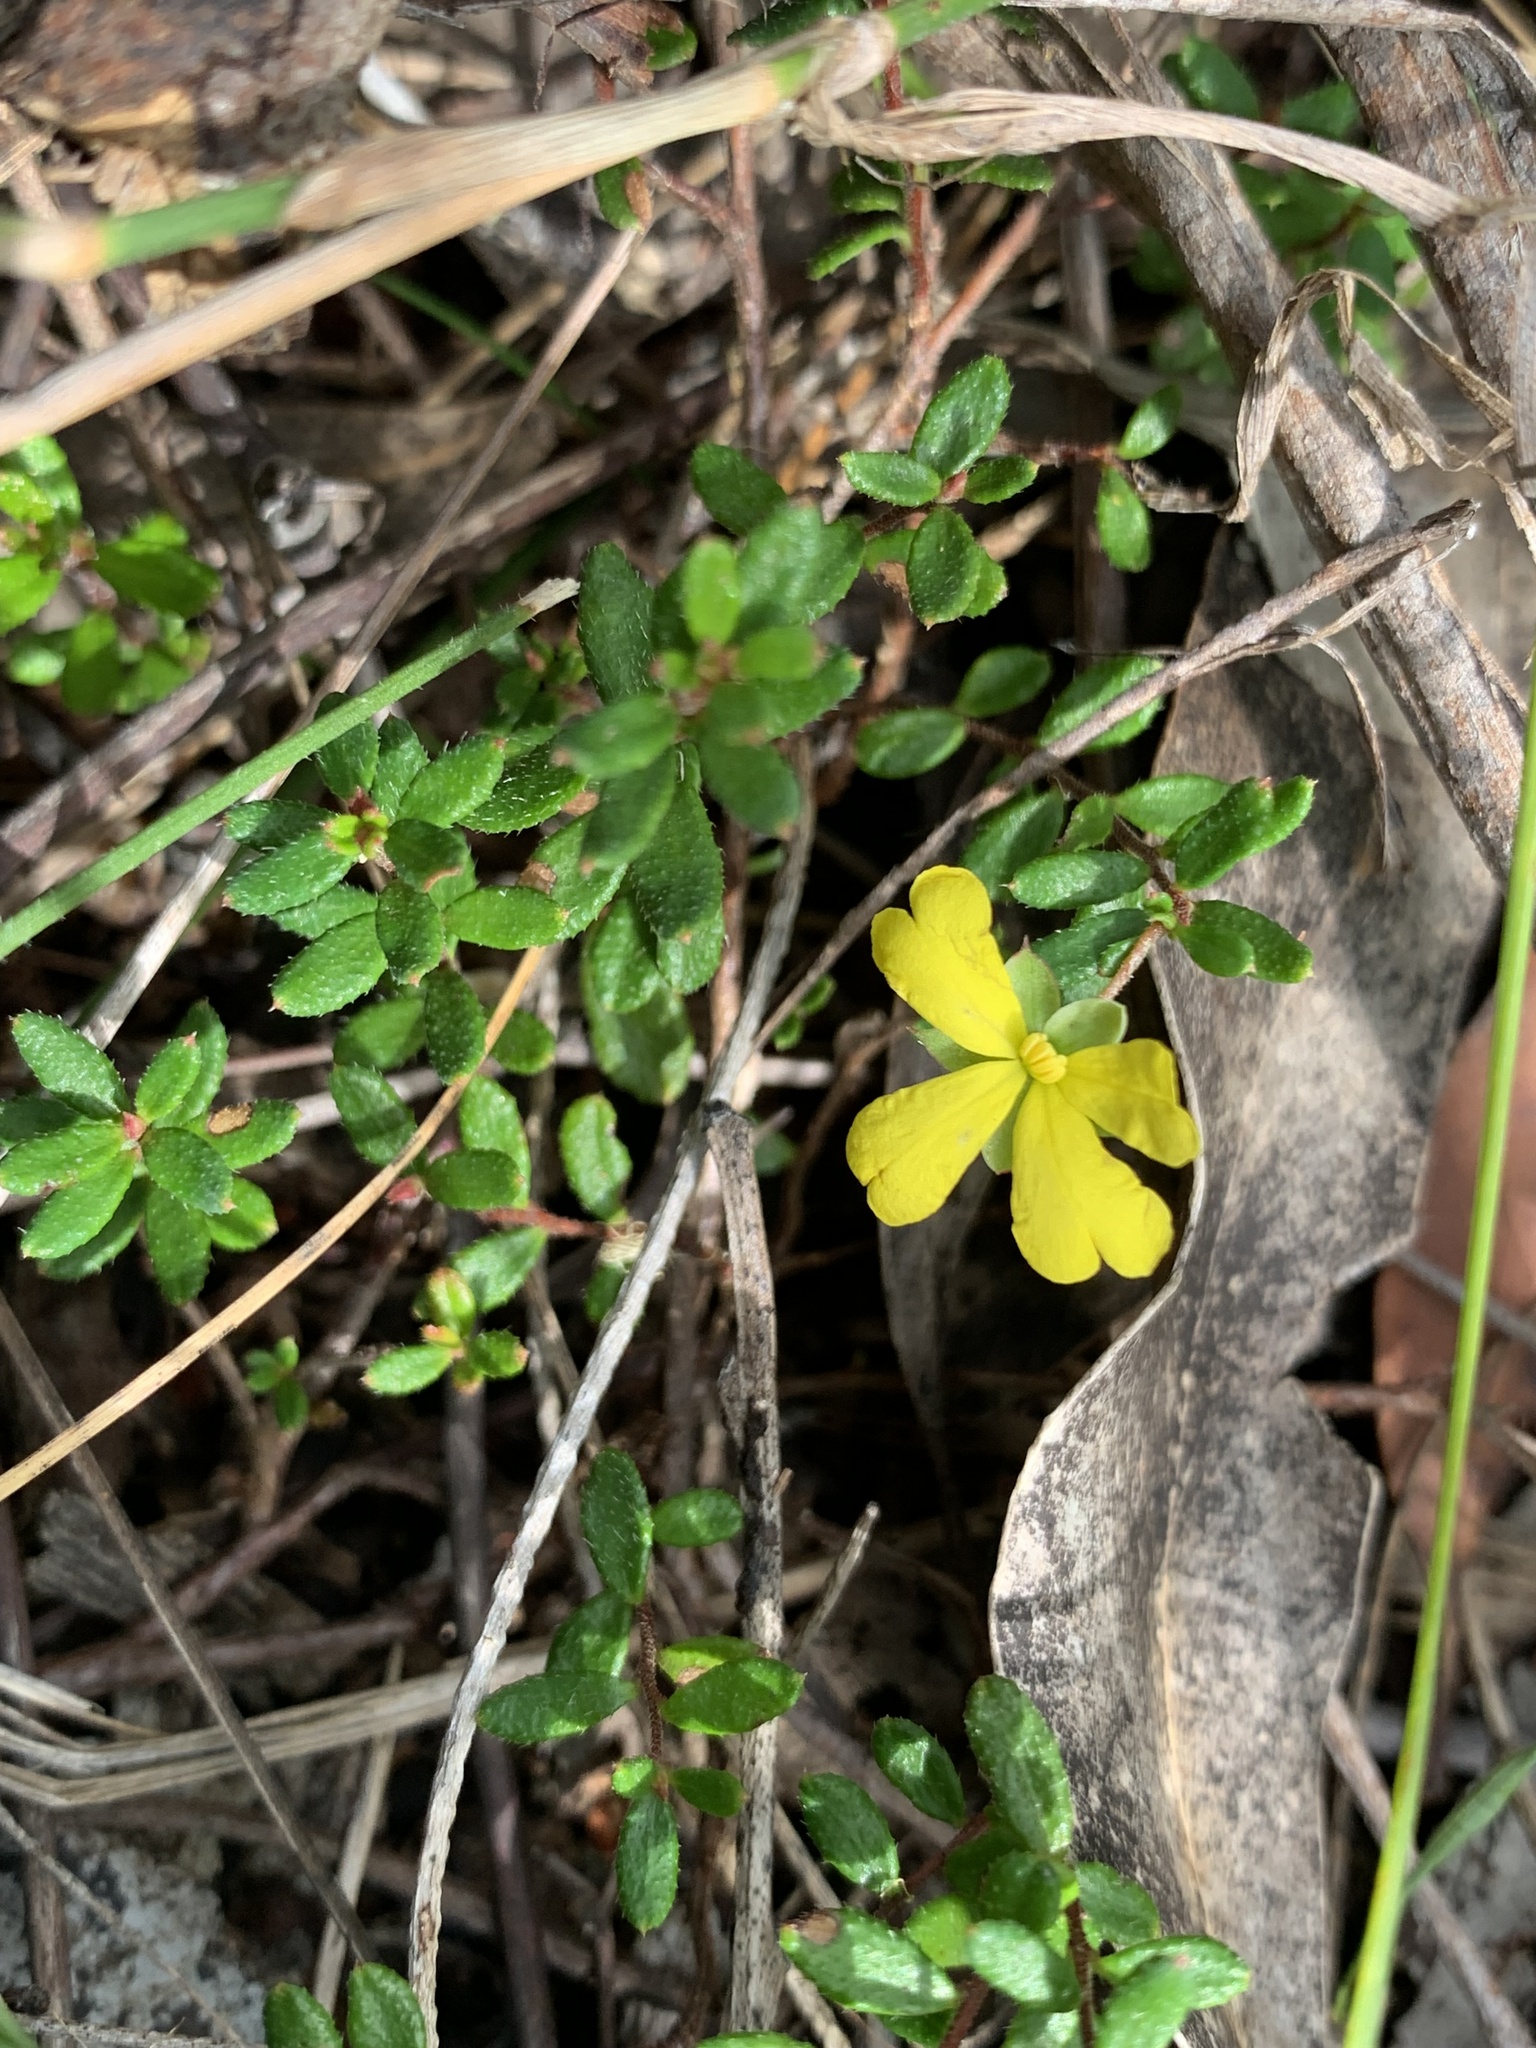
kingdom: Plantae
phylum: Tracheophyta
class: Magnoliopsida
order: Dilleniales
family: Dilleniaceae
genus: Hibbertia
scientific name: Hibbertia empetrifolia
